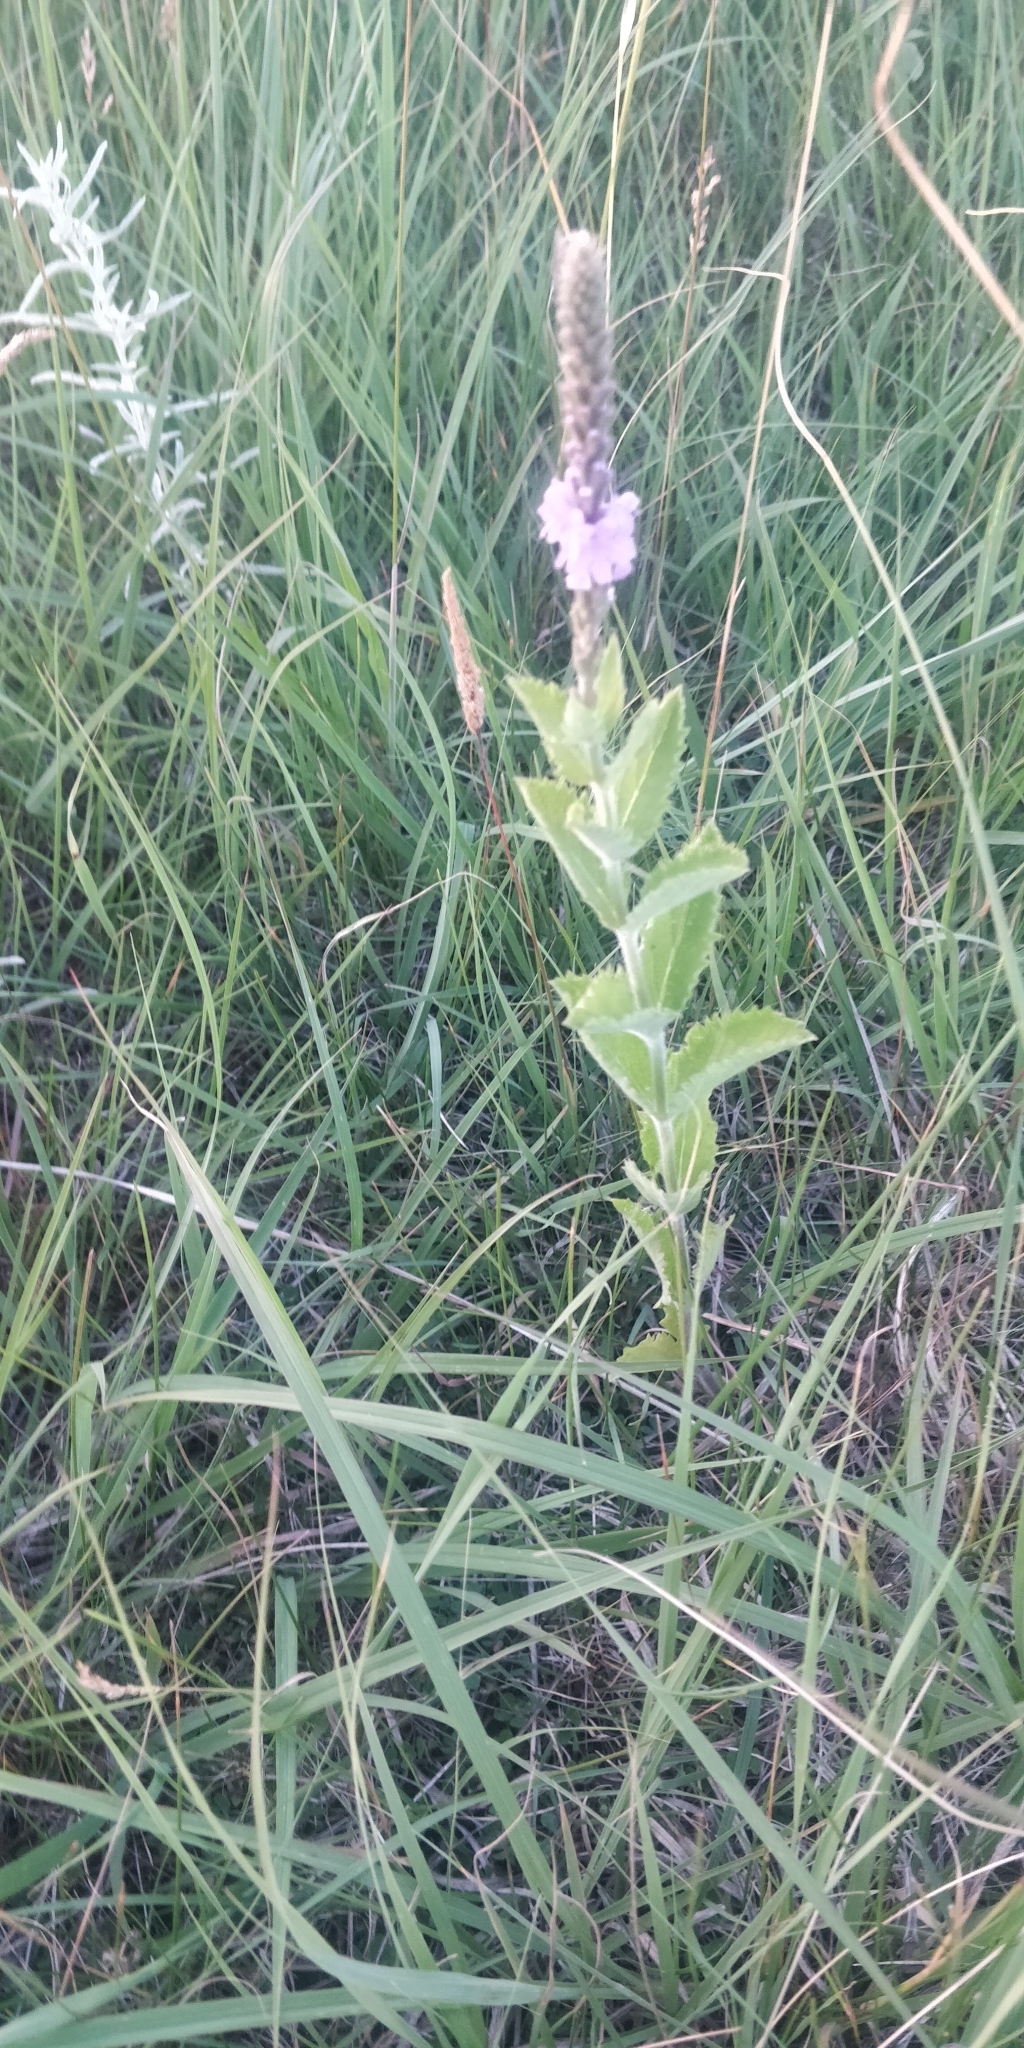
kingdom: Plantae
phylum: Tracheophyta
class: Magnoliopsida
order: Lamiales
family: Verbenaceae
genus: Verbena
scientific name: Verbena stricta
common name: Hoary vervain
